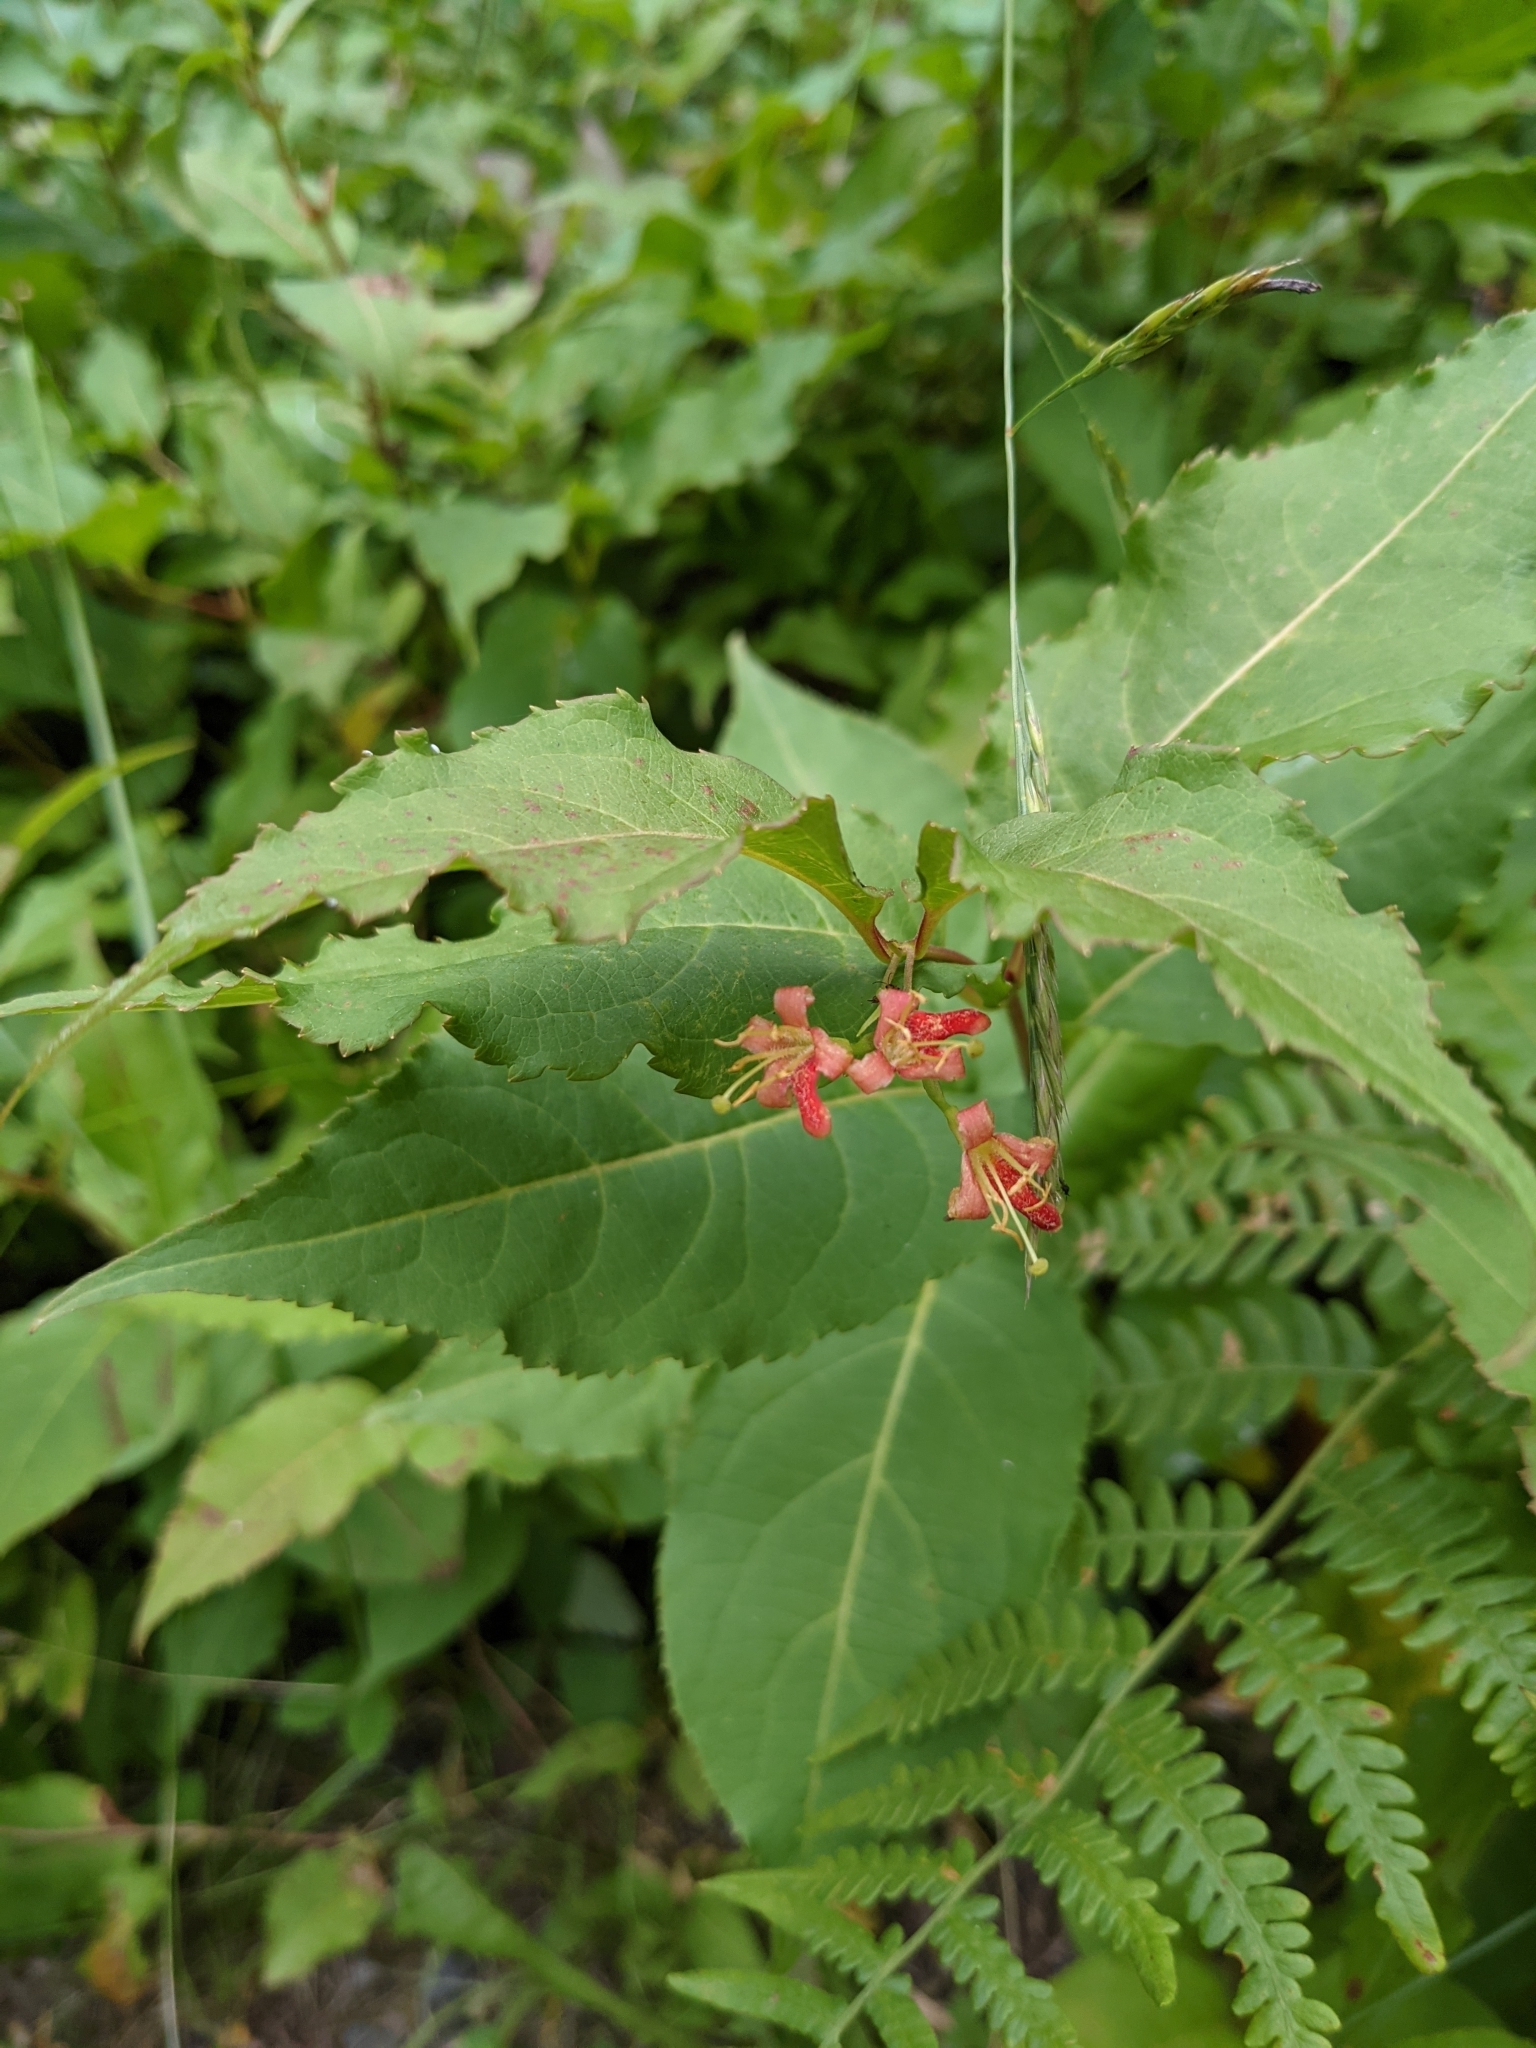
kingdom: Plantae
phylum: Tracheophyta
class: Magnoliopsida
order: Dipsacales
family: Caprifoliaceae
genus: Diervilla
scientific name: Diervilla lonicera
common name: Bush-honeysuckle
